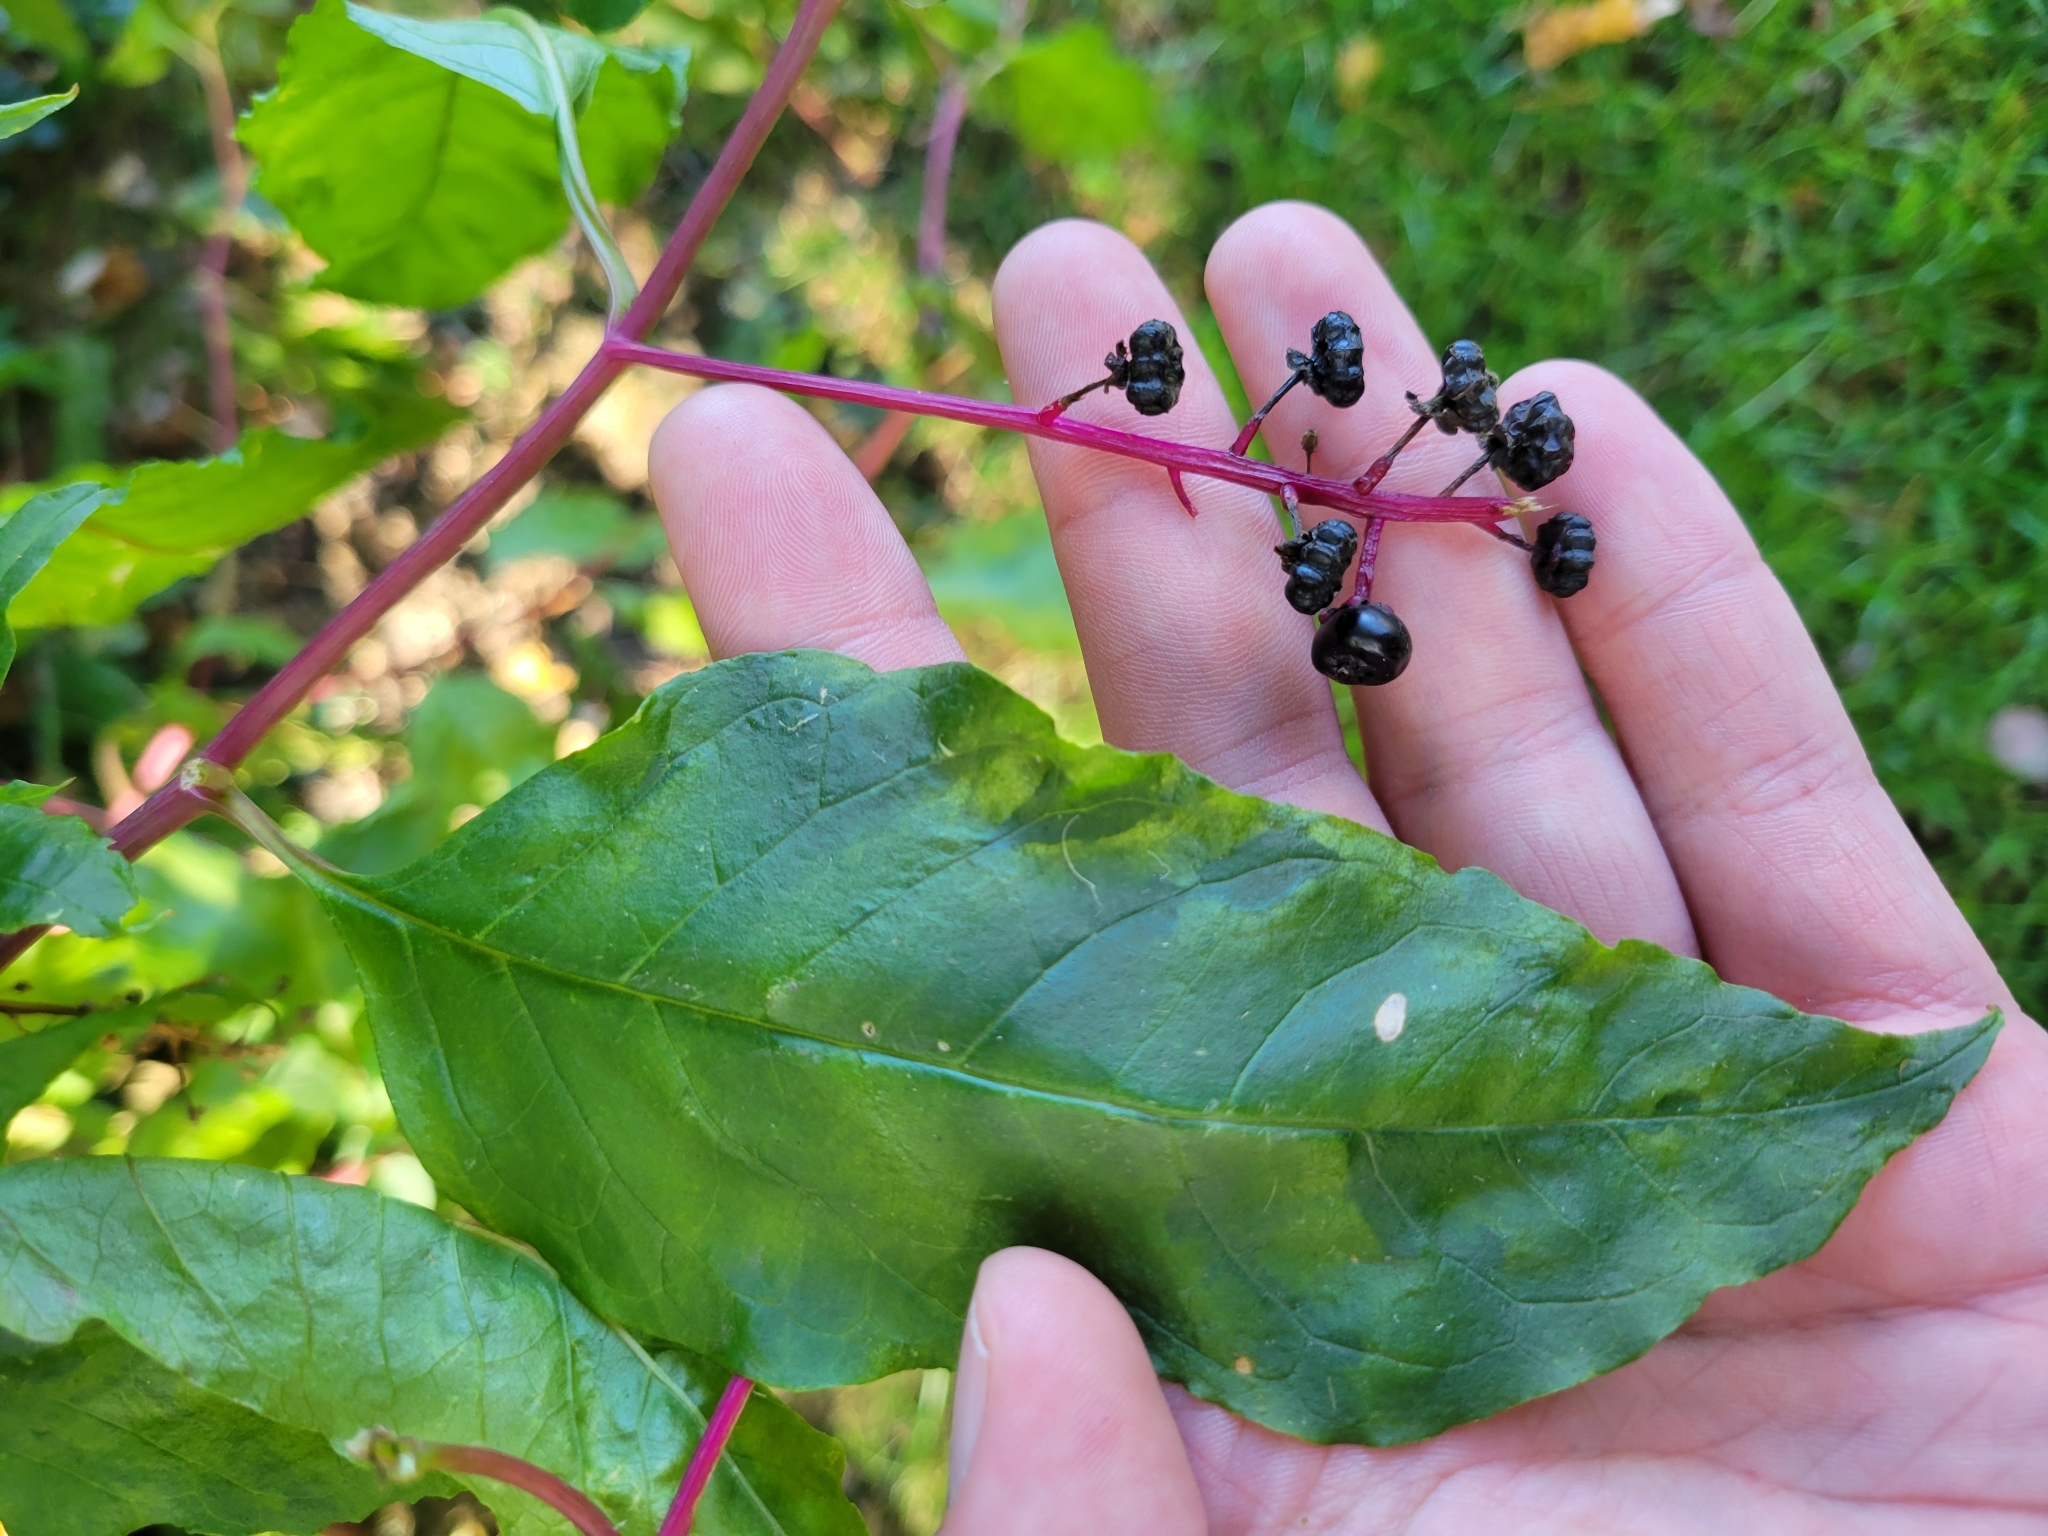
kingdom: Plantae
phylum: Tracheophyta
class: Magnoliopsida
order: Caryophyllales
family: Phytolaccaceae
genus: Phytolacca
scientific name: Phytolacca americana
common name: American pokeweed
